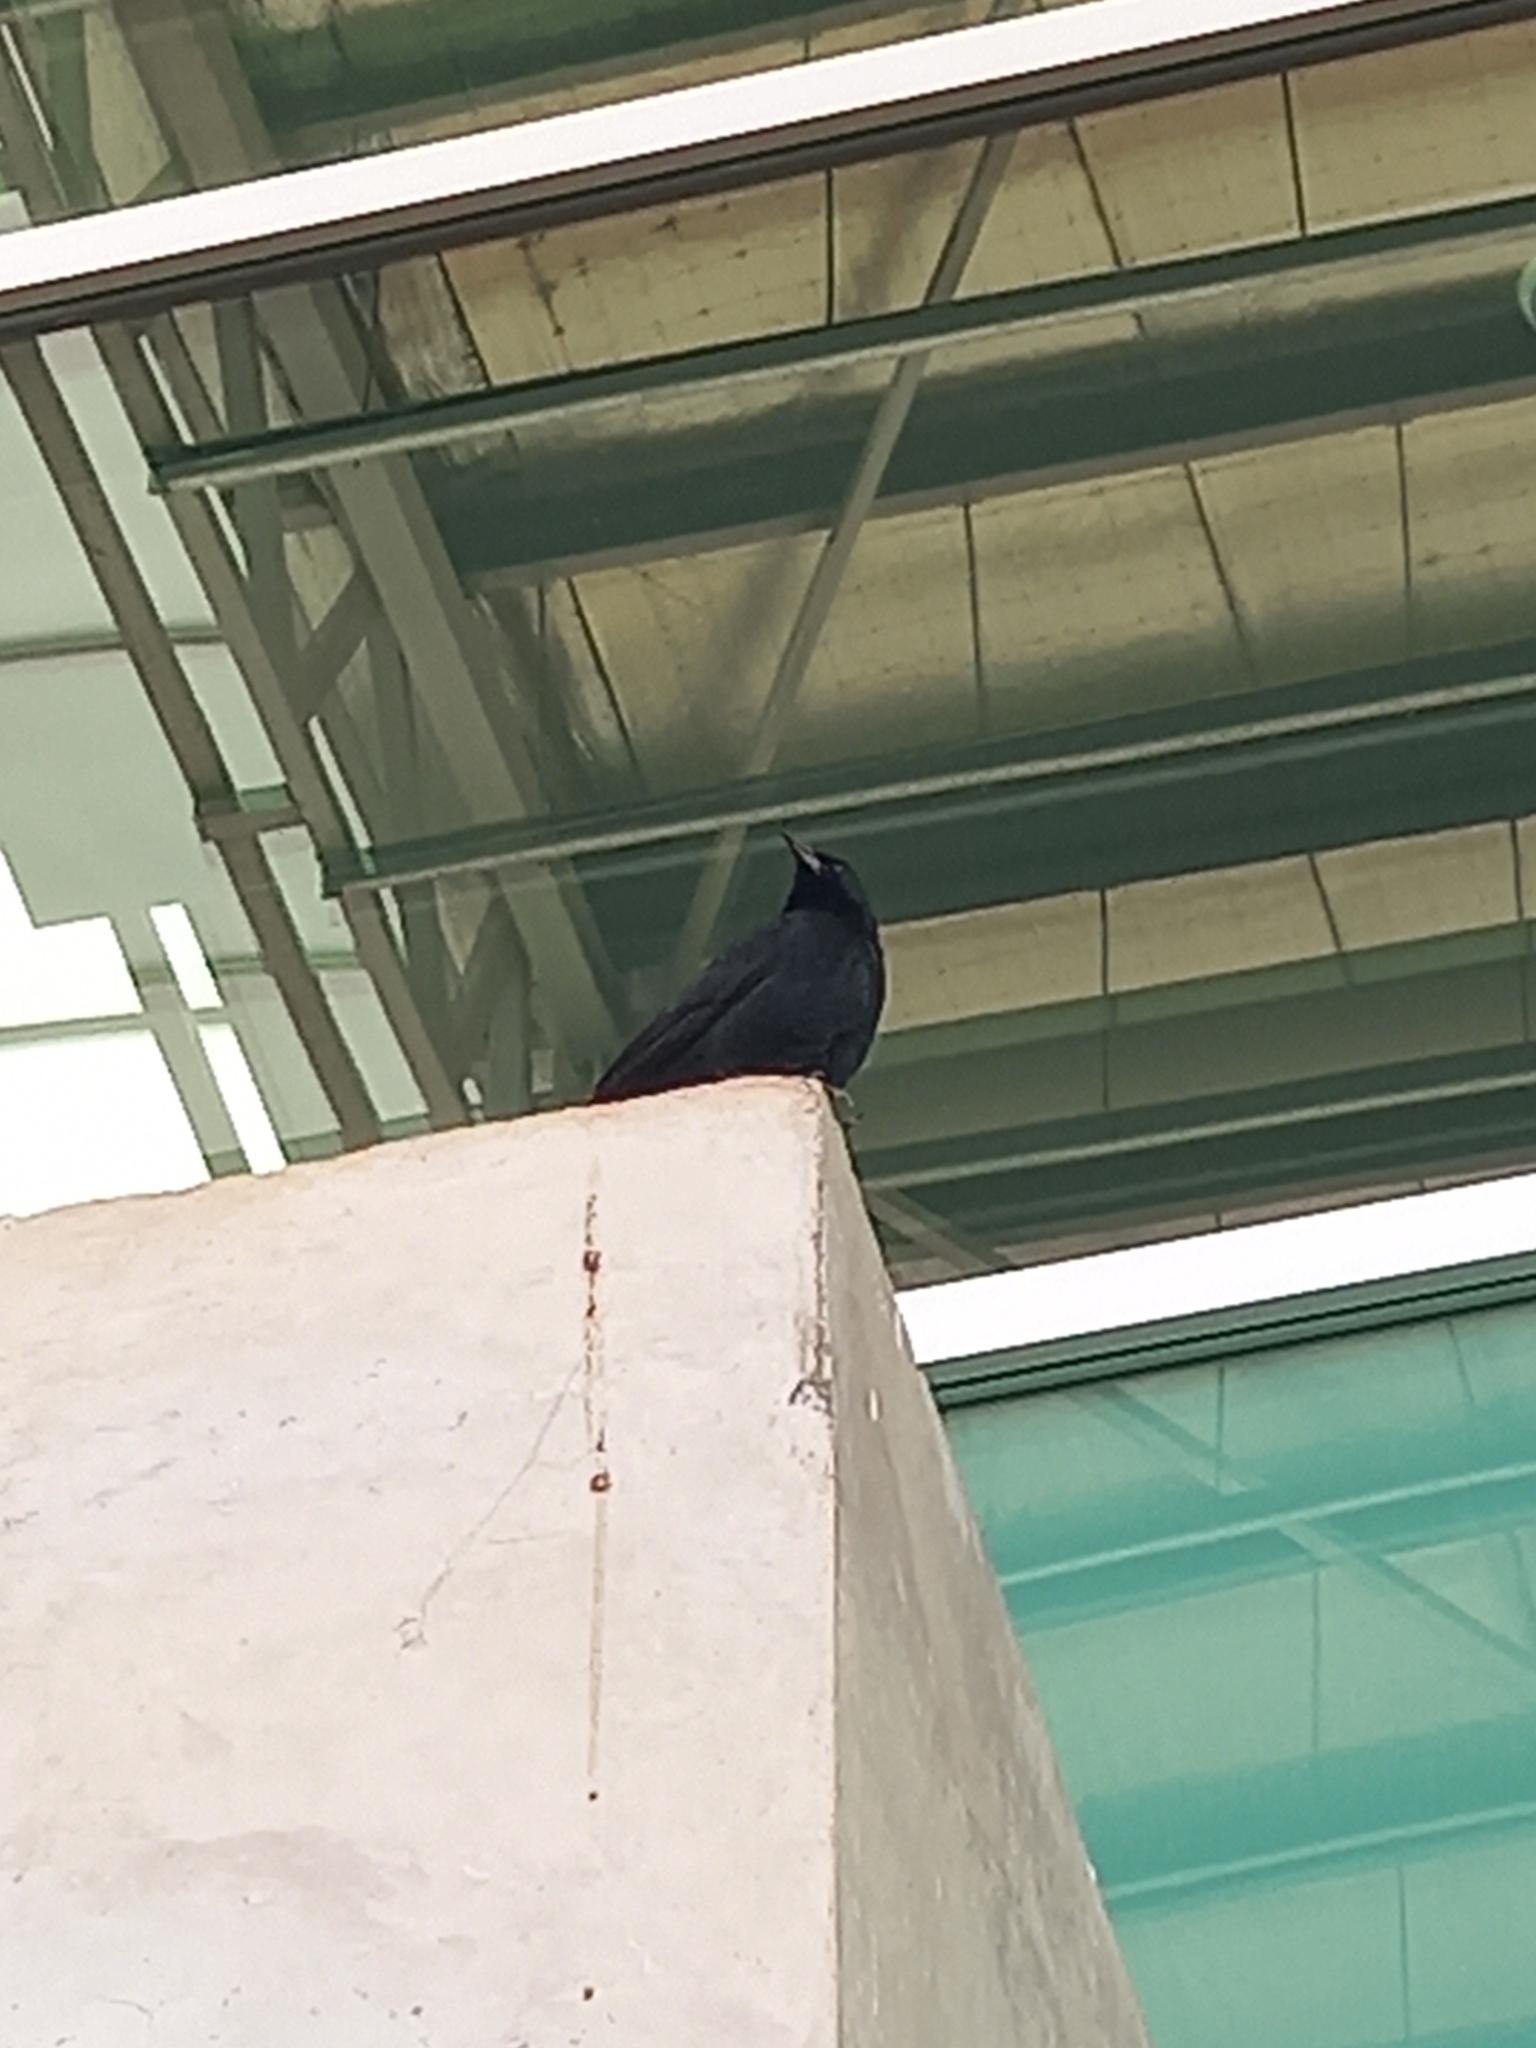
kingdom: Animalia
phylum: Chordata
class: Aves
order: Passeriformes
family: Icteridae
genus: Gnorimopsar
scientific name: Gnorimopsar chopi
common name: Chopi blackbird
